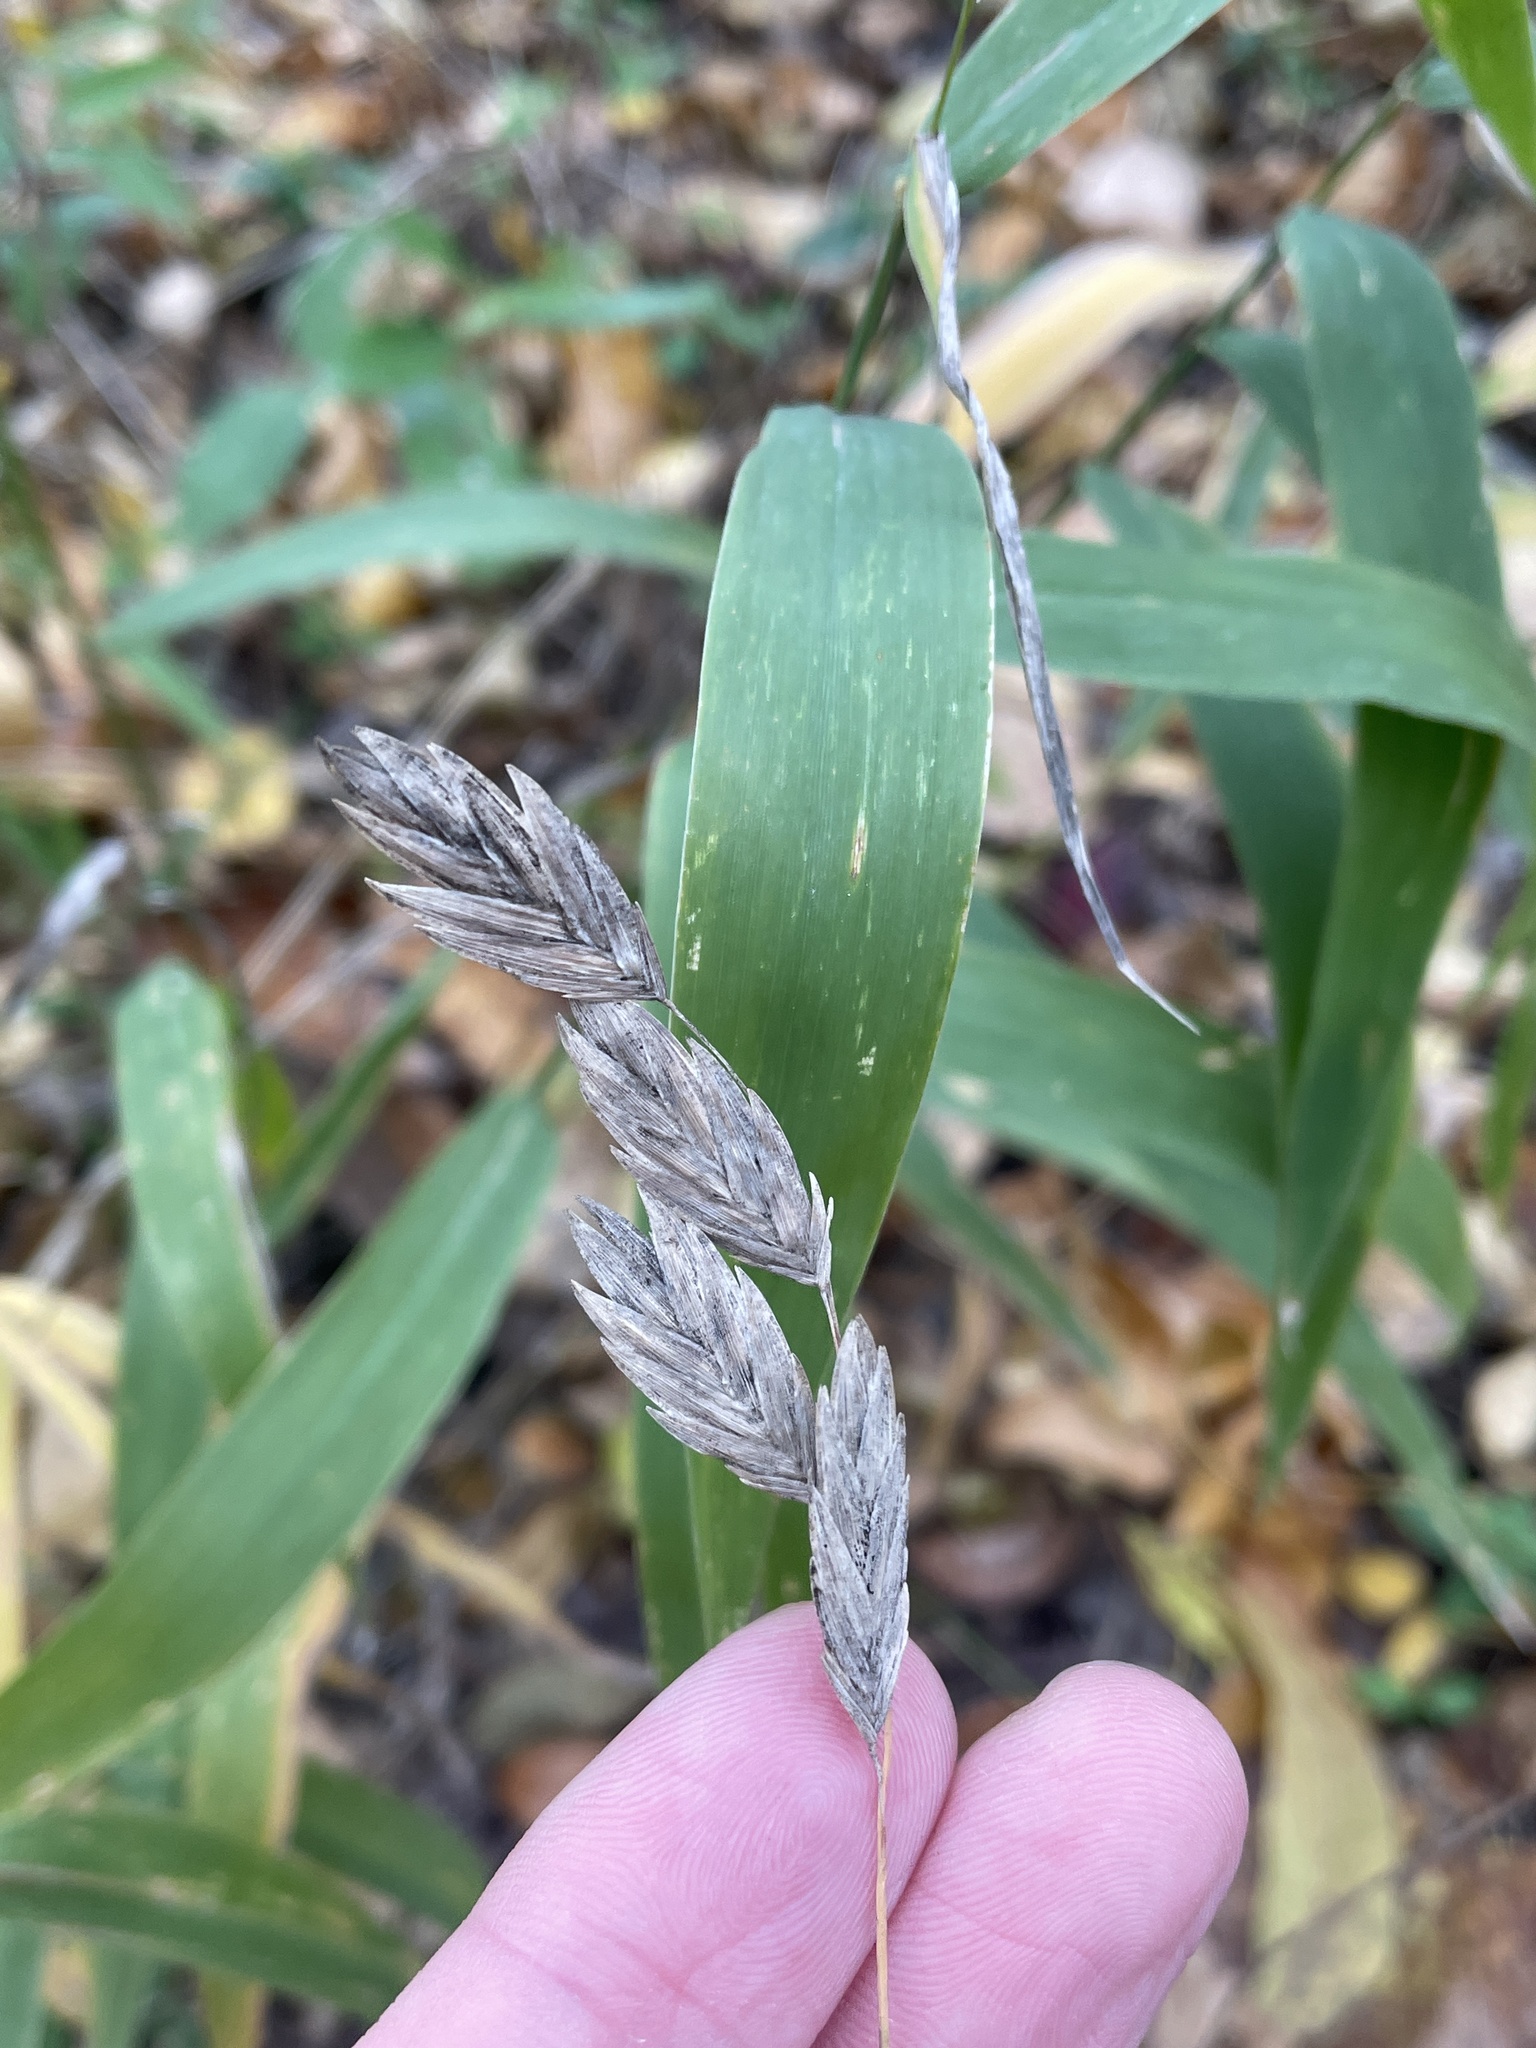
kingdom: Plantae
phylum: Tracheophyta
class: Liliopsida
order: Poales
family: Poaceae
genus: Chasmanthium
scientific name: Chasmanthium latifolium
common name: Broad-leaved chasmanthium
